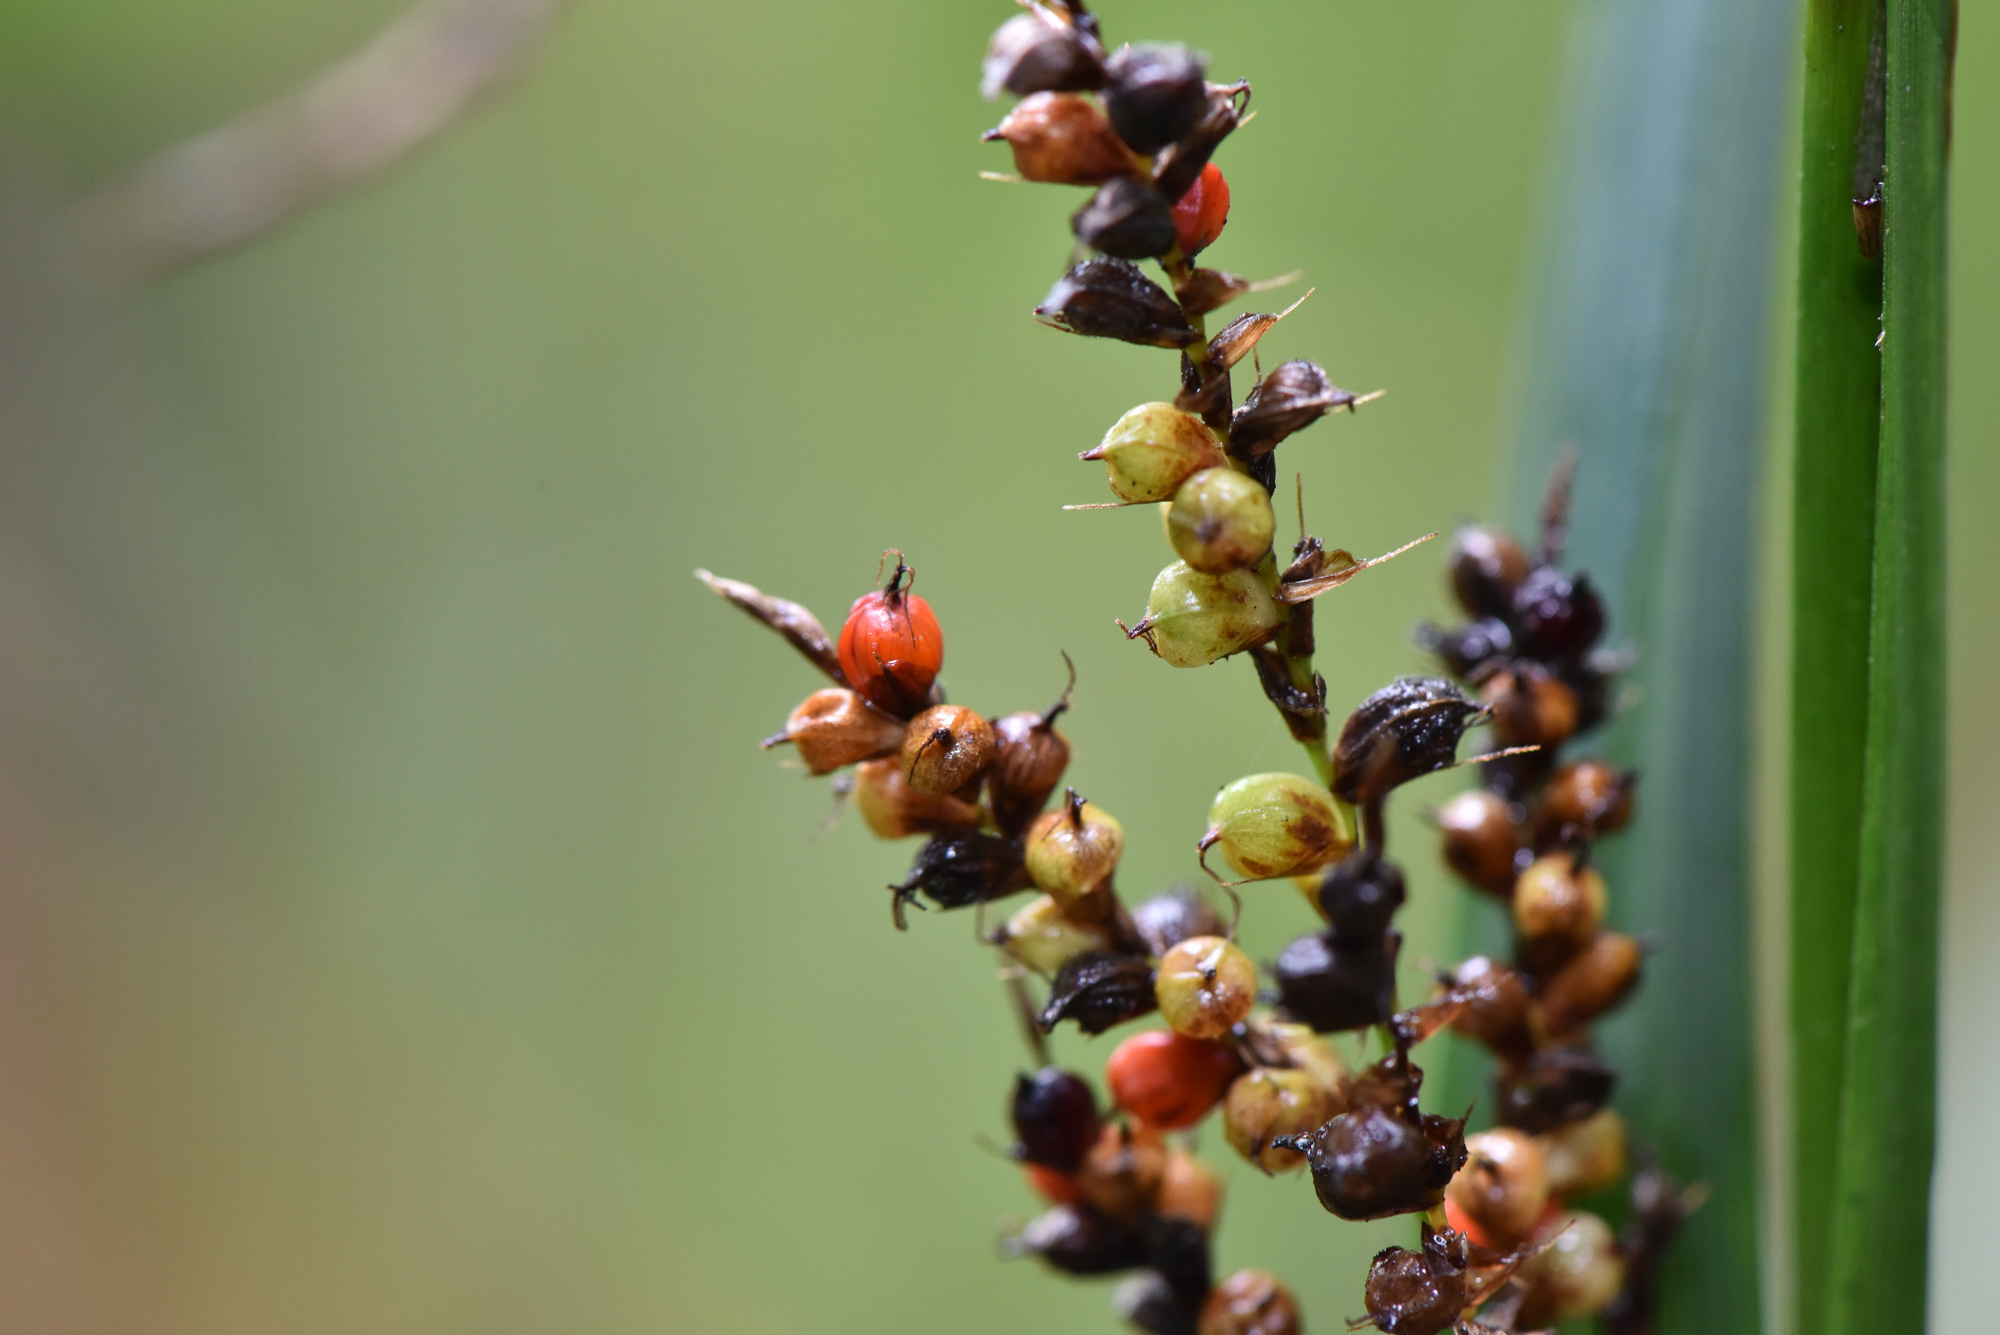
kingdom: Plantae
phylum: Tracheophyta
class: Liliopsida
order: Poales
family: Cyperaceae
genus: Carex
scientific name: Carex baccans
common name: Crimson seeded sedge
